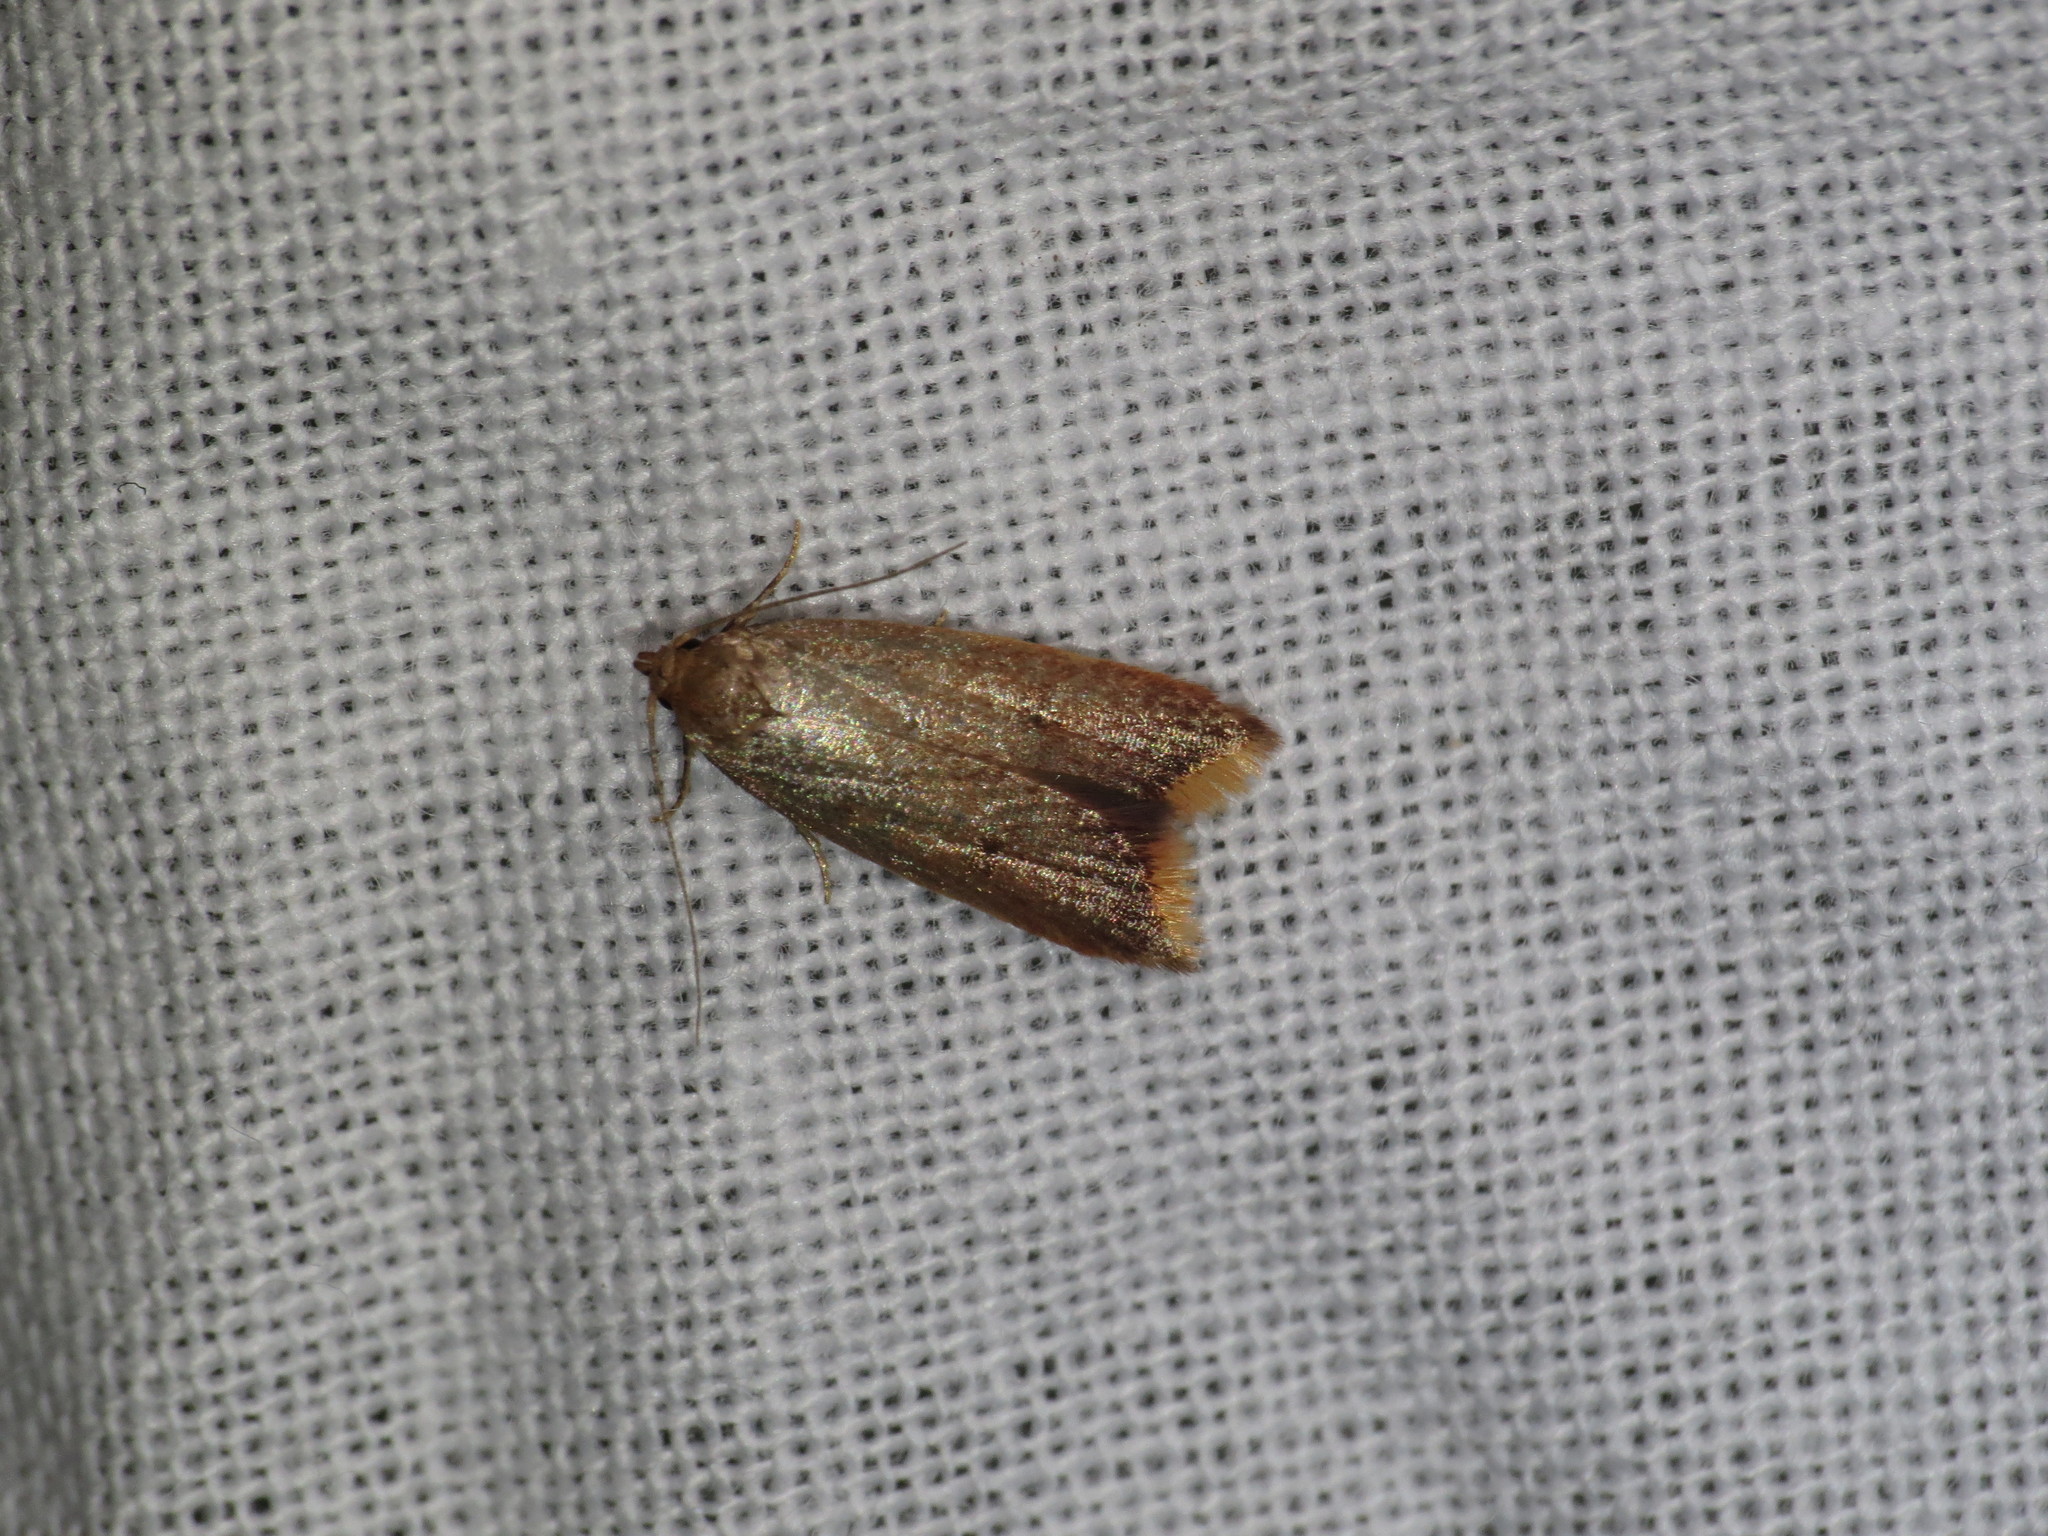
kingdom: Animalia
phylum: Arthropoda
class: Insecta
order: Lepidoptera
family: Oecophoridae
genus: Tachystola
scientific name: Tachystola acroxantha
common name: Ruddy streak
